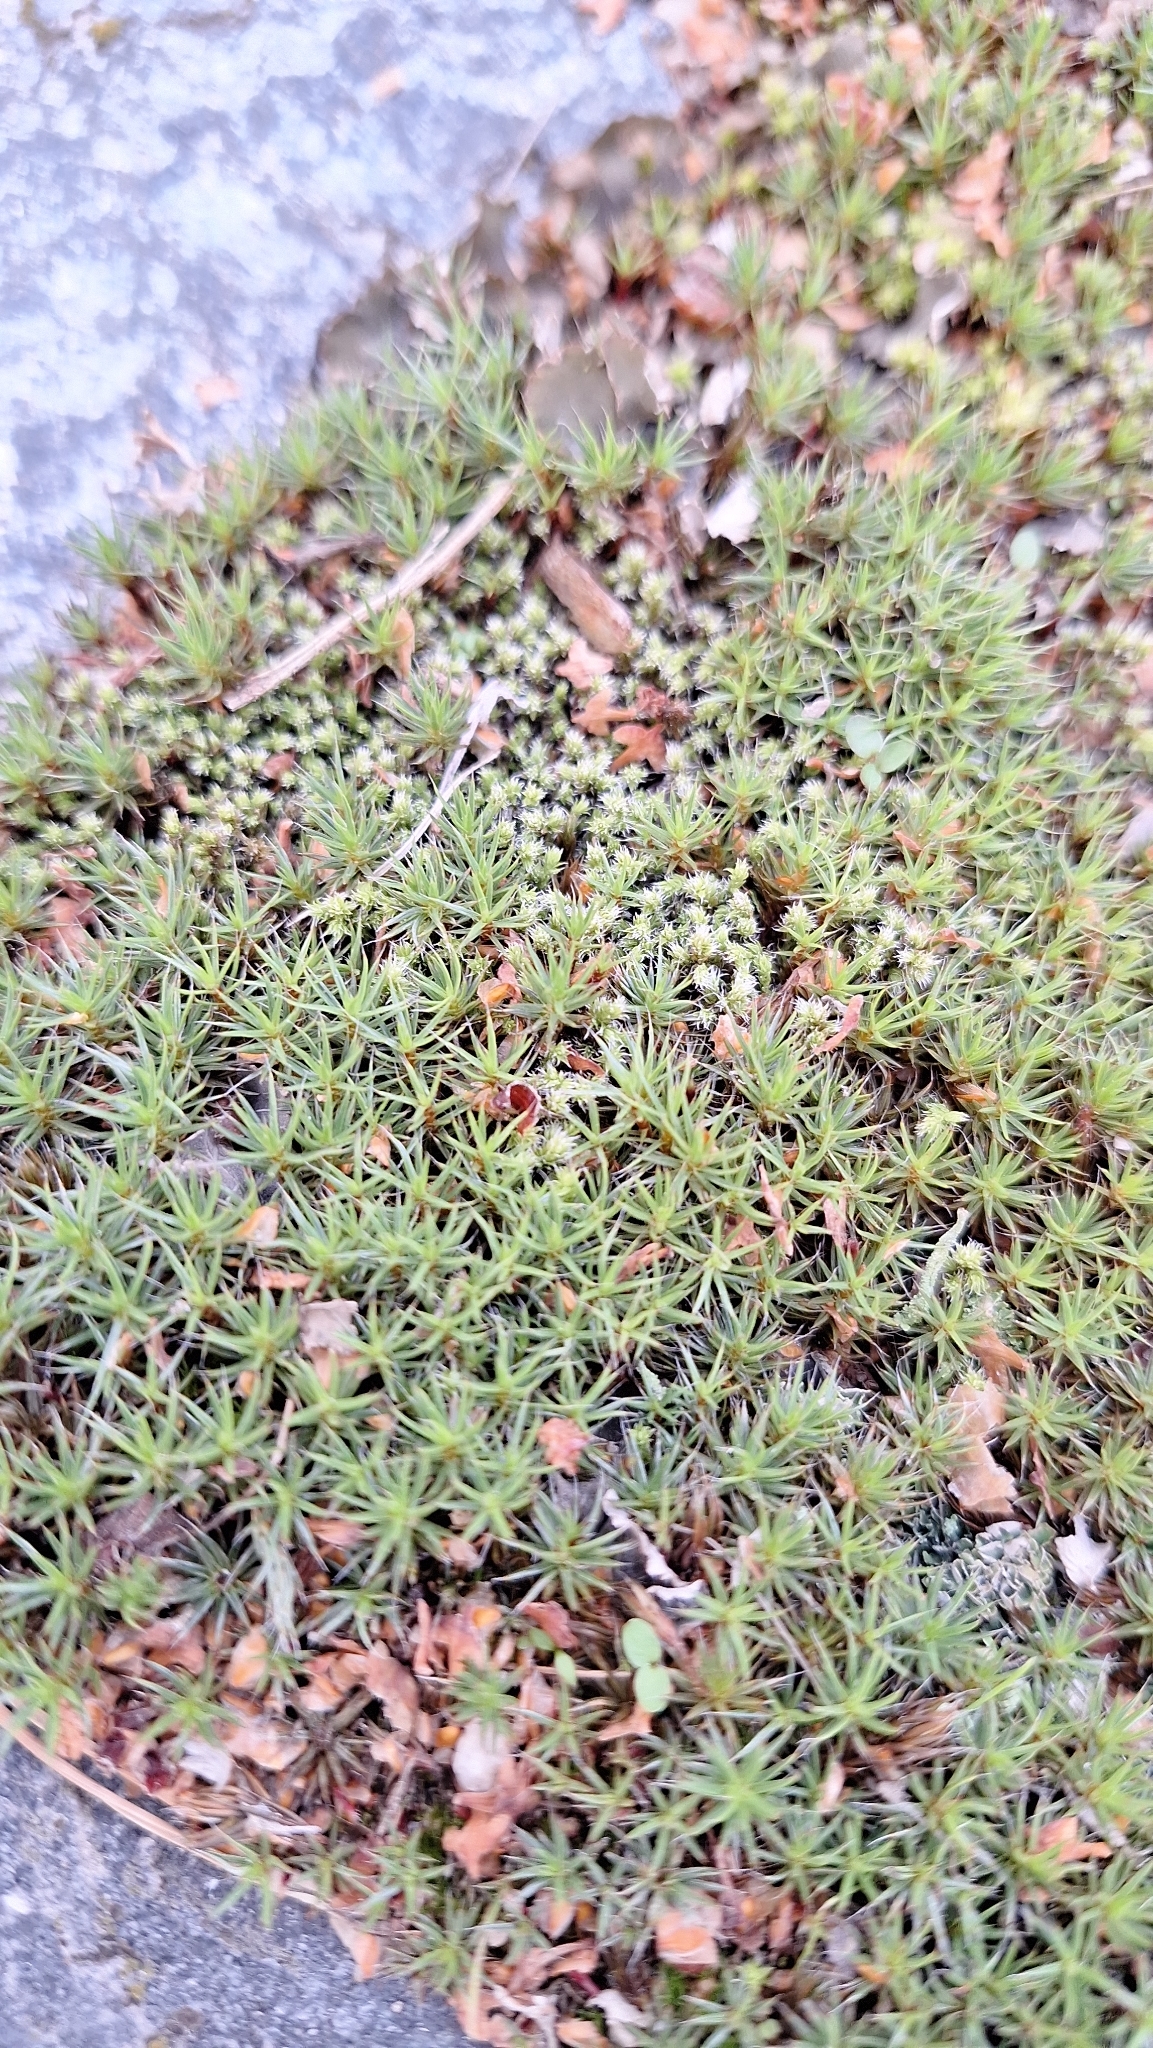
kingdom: Plantae
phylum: Bryophyta
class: Polytrichopsida
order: Polytrichales
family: Polytrichaceae
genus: Polytrichum
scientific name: Polytrichum piliferum
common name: Bristly haircap
